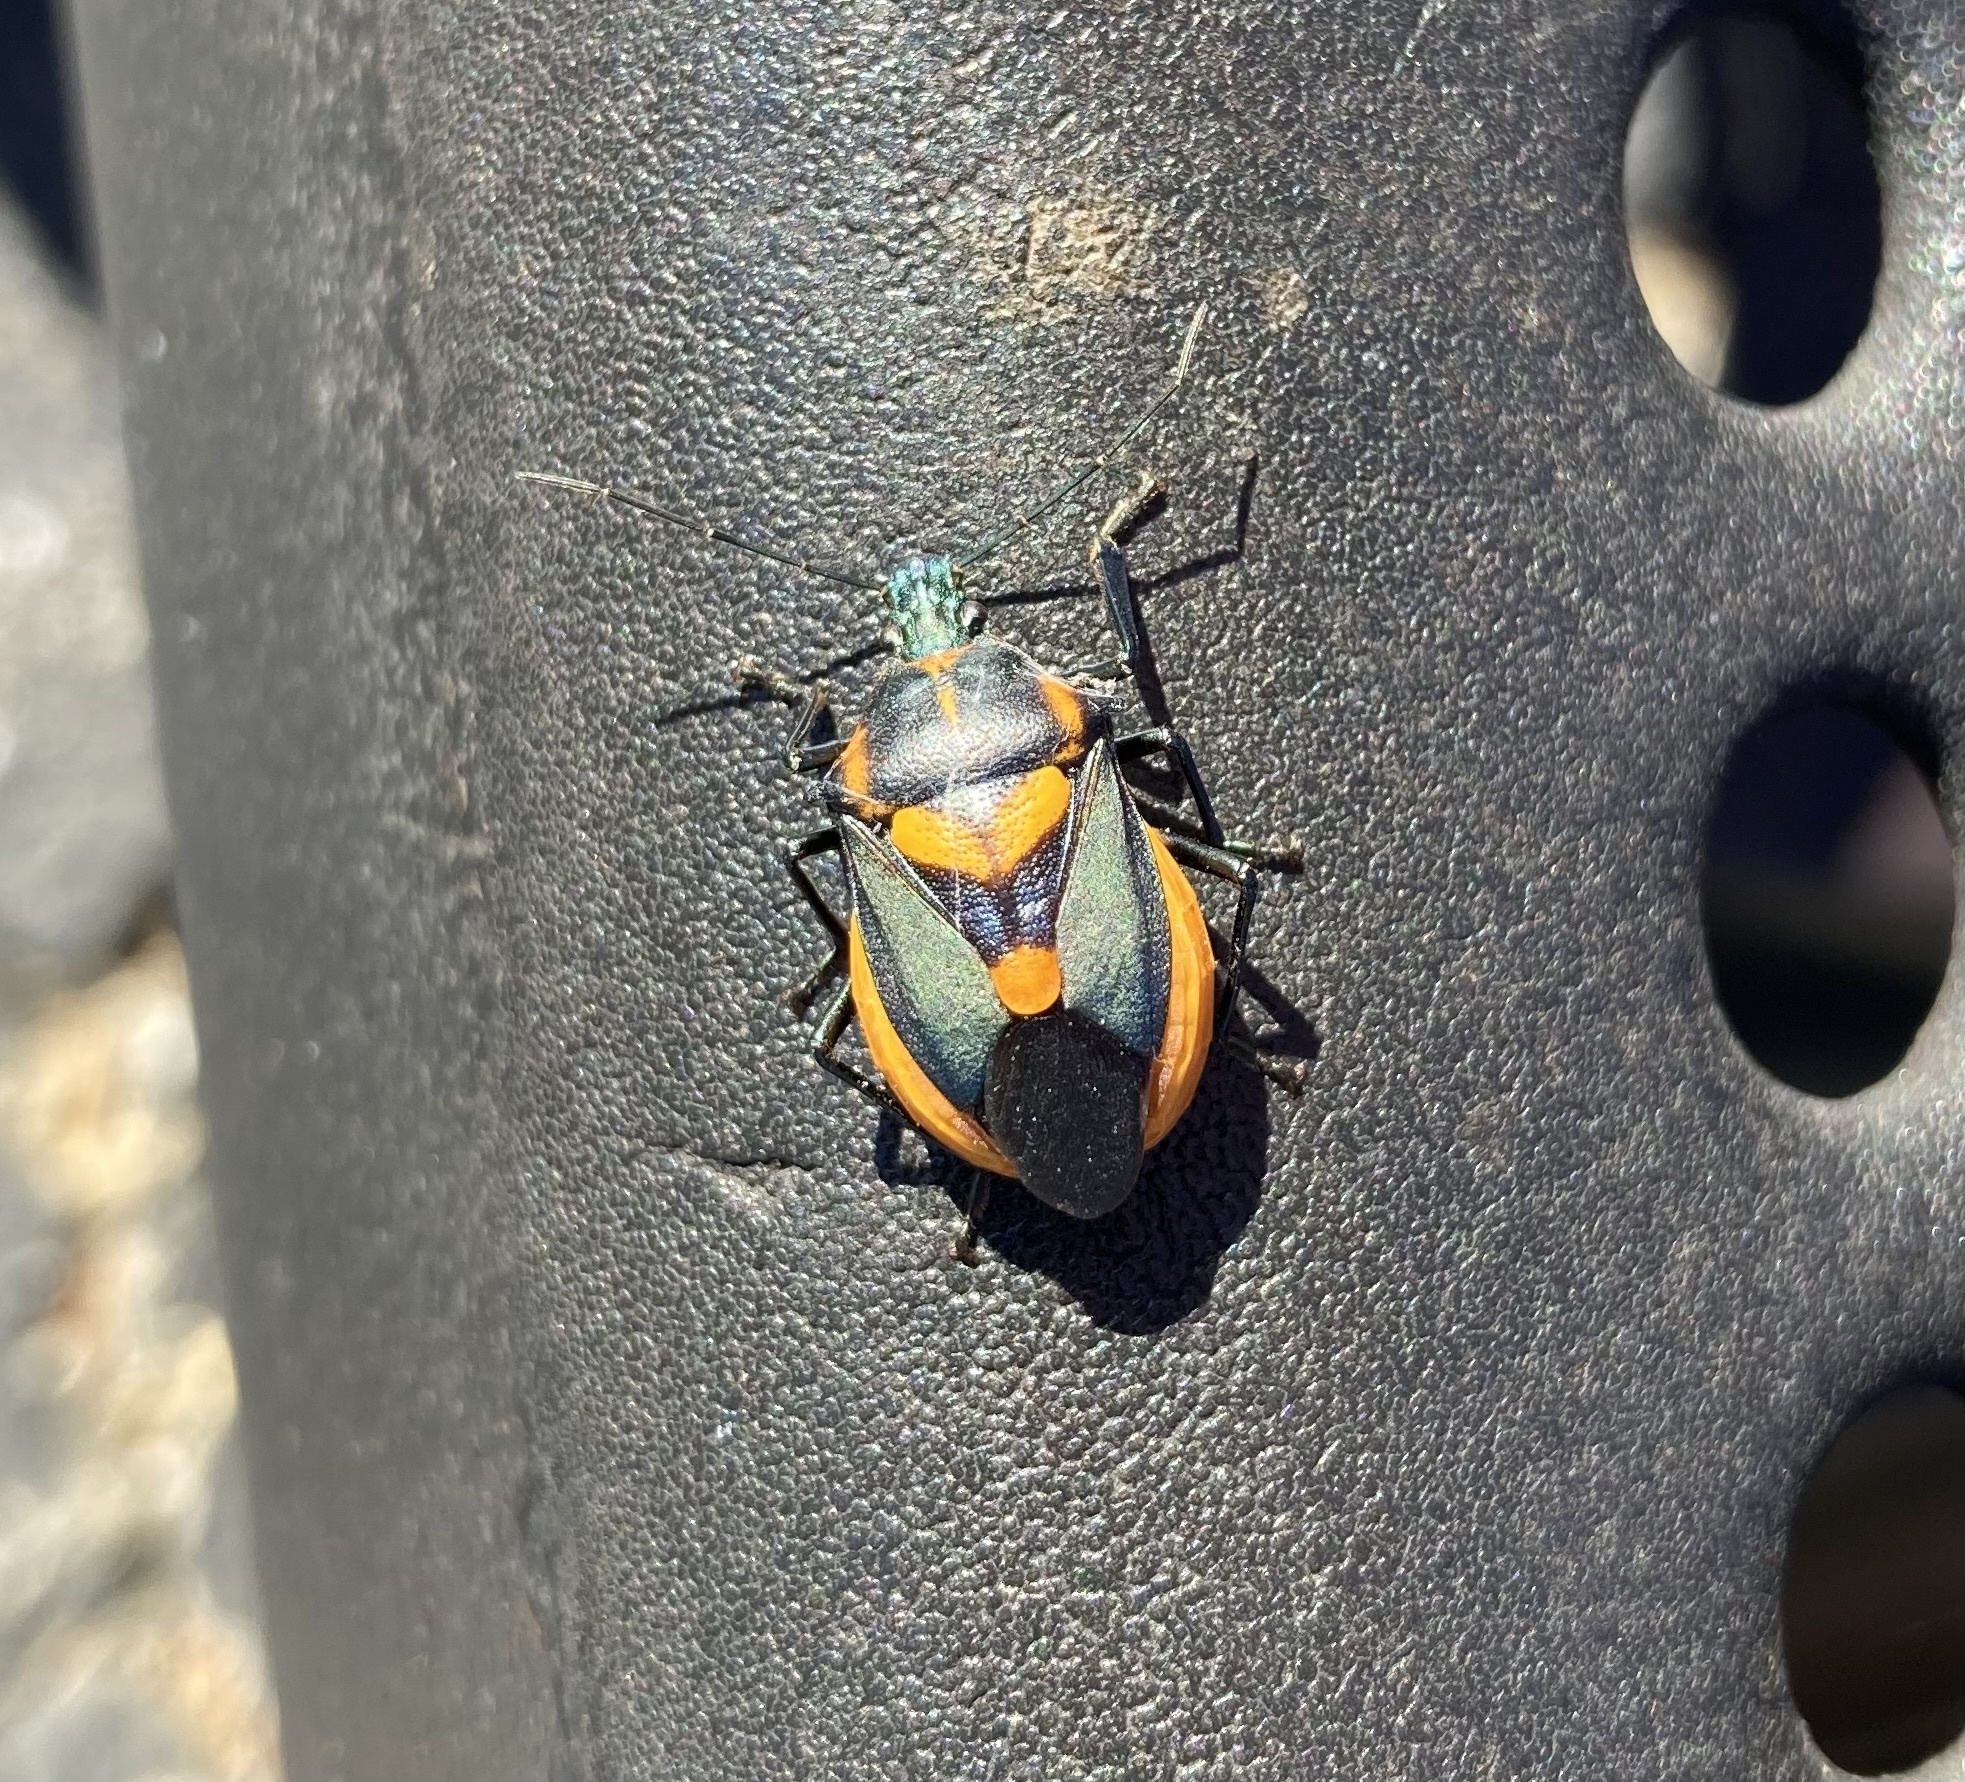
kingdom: Animalia
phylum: Arthropoda
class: Insecta
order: Hemiptera
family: Pentatomidae
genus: Euthyrhynchus
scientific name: Euthyrhynchus floridanus
